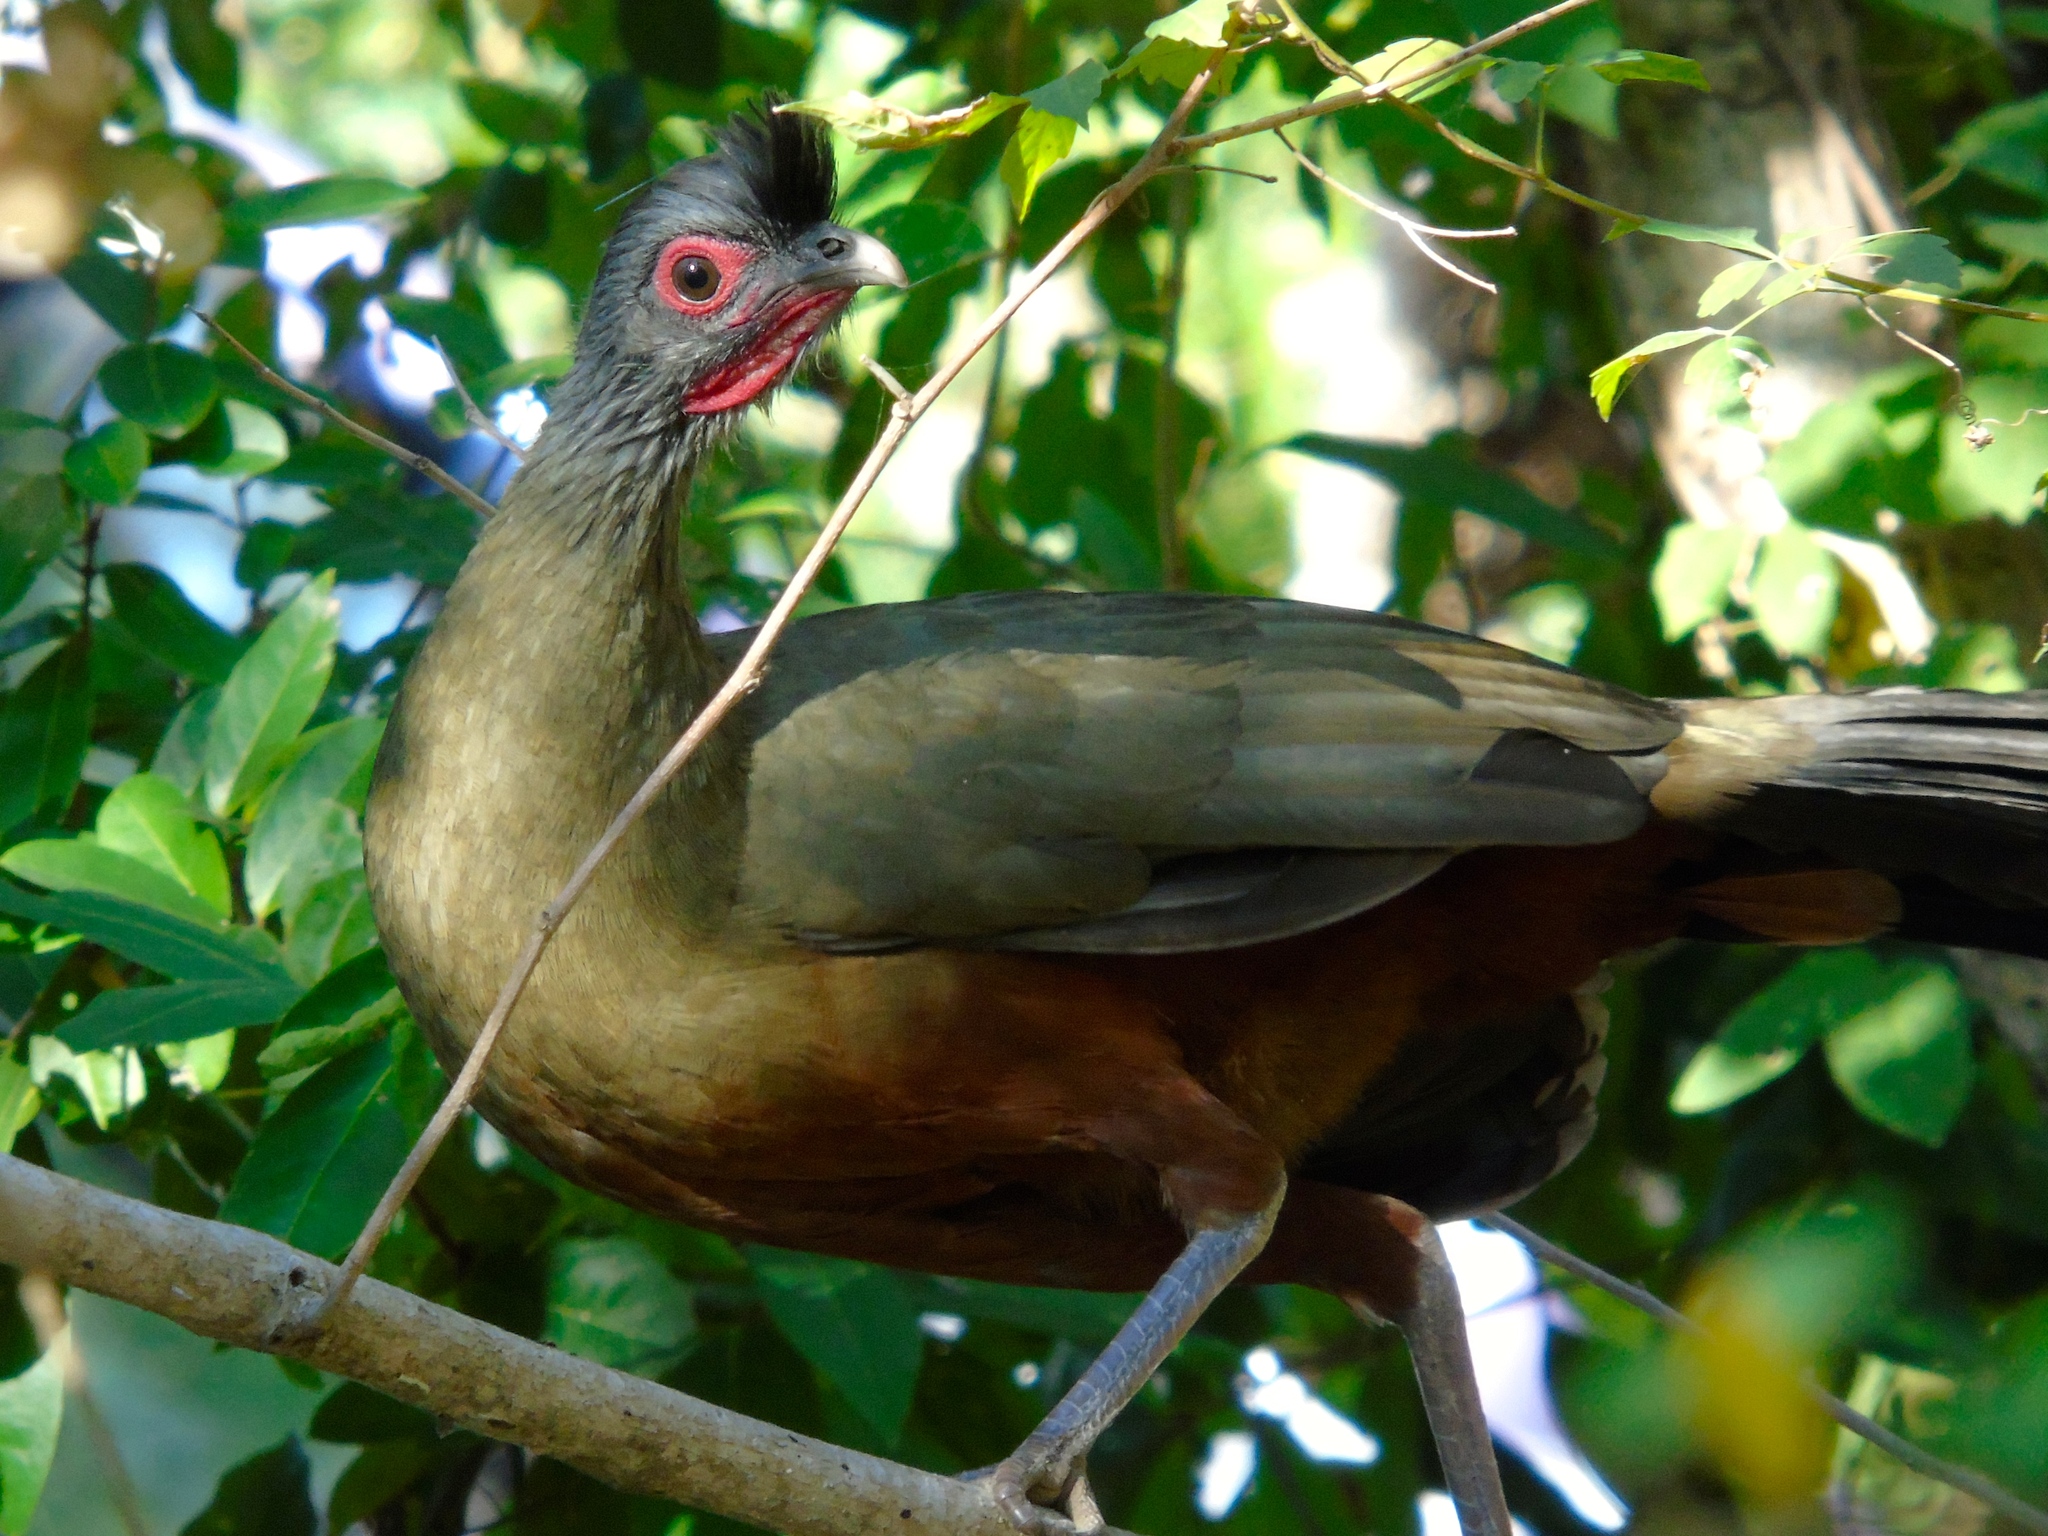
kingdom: Animalia
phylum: Chordata
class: Aves
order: Galliformes
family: Cracidae
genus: Ortalis
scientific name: Ortalis wagleri
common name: Rufous-bellied chachalaca
